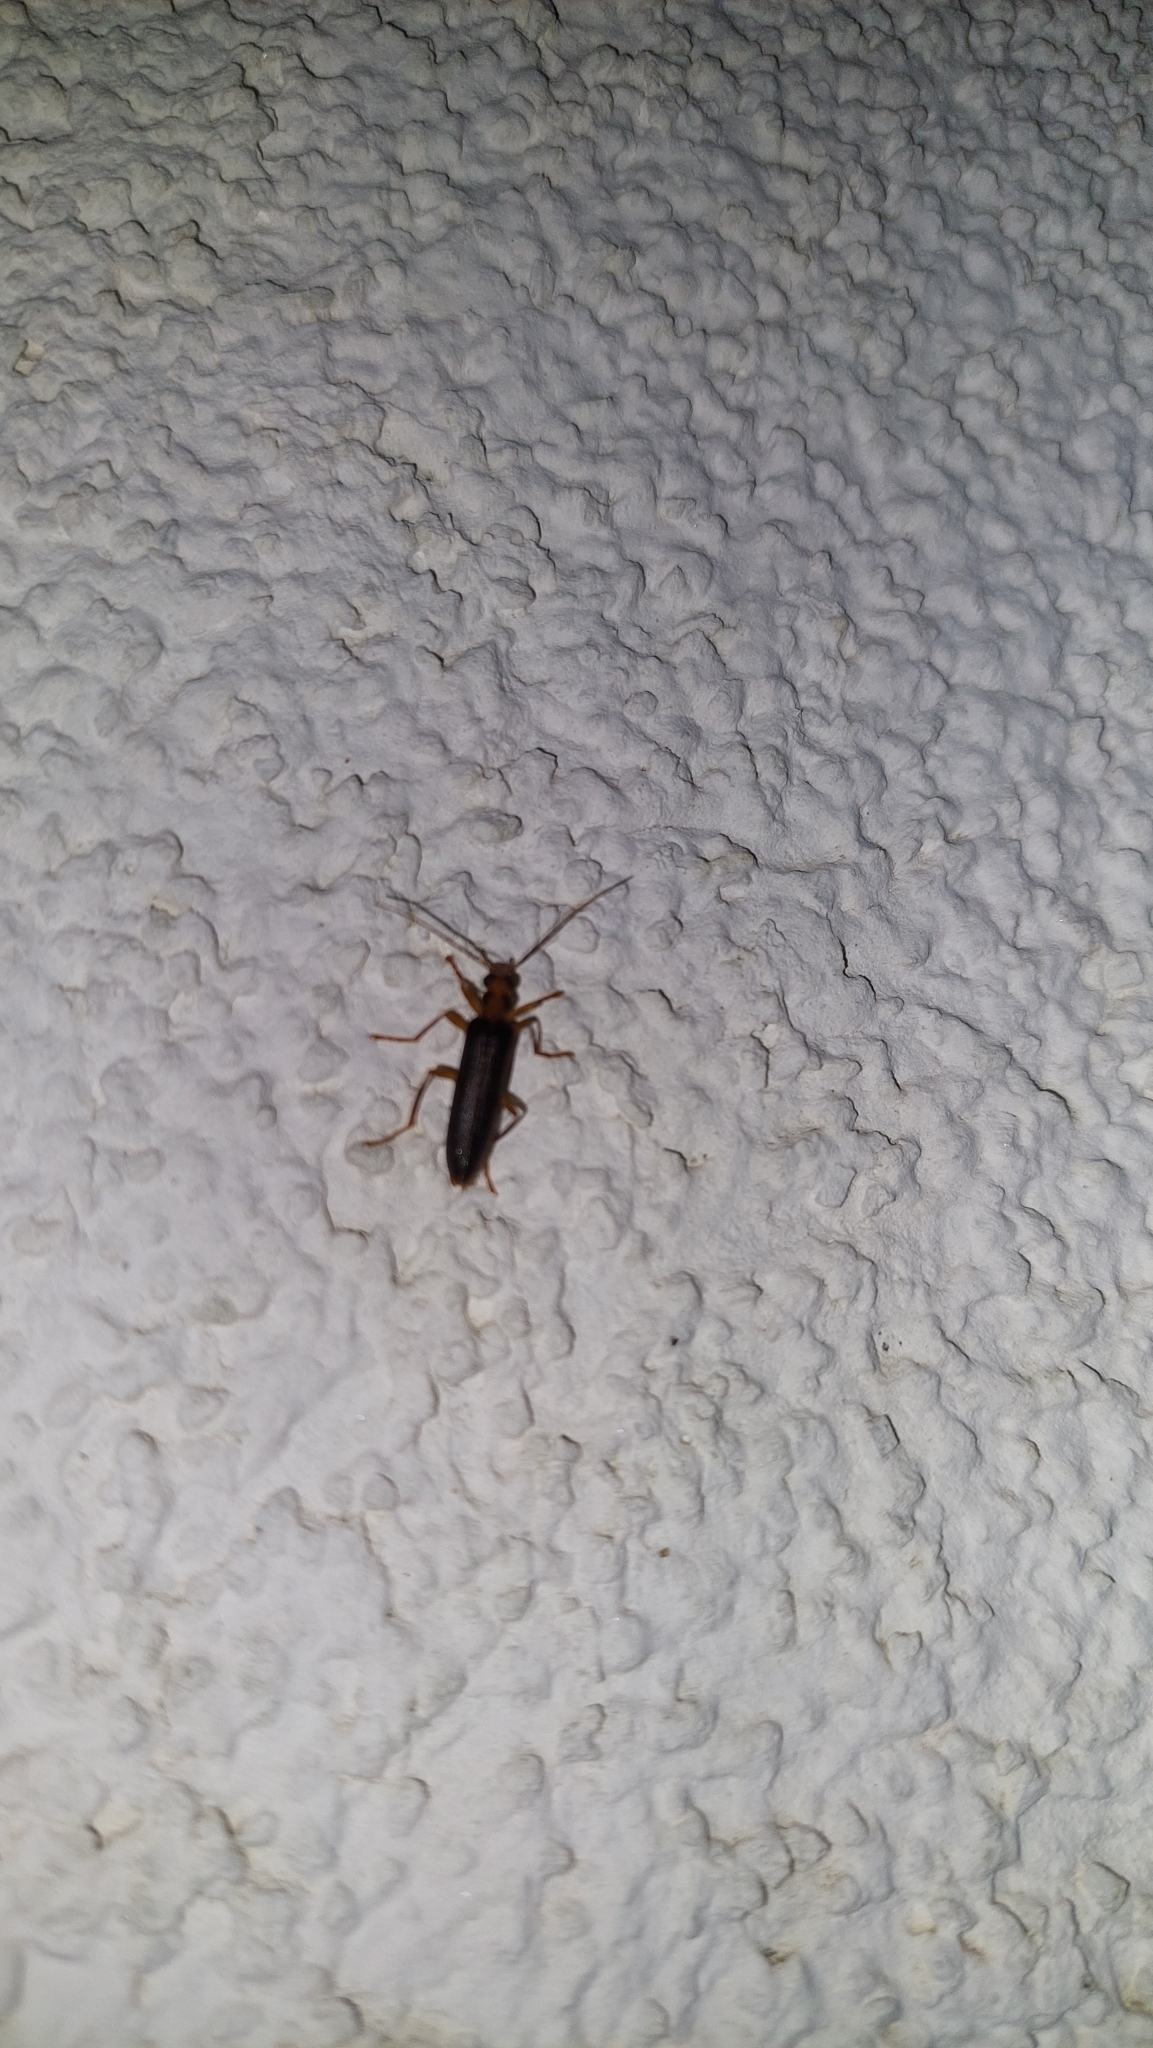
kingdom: Animalia
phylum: Arthropoda
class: Insecta
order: Coleoptera
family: Oedemeridae
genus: Nacerdes
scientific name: Nacerdes carniolica
